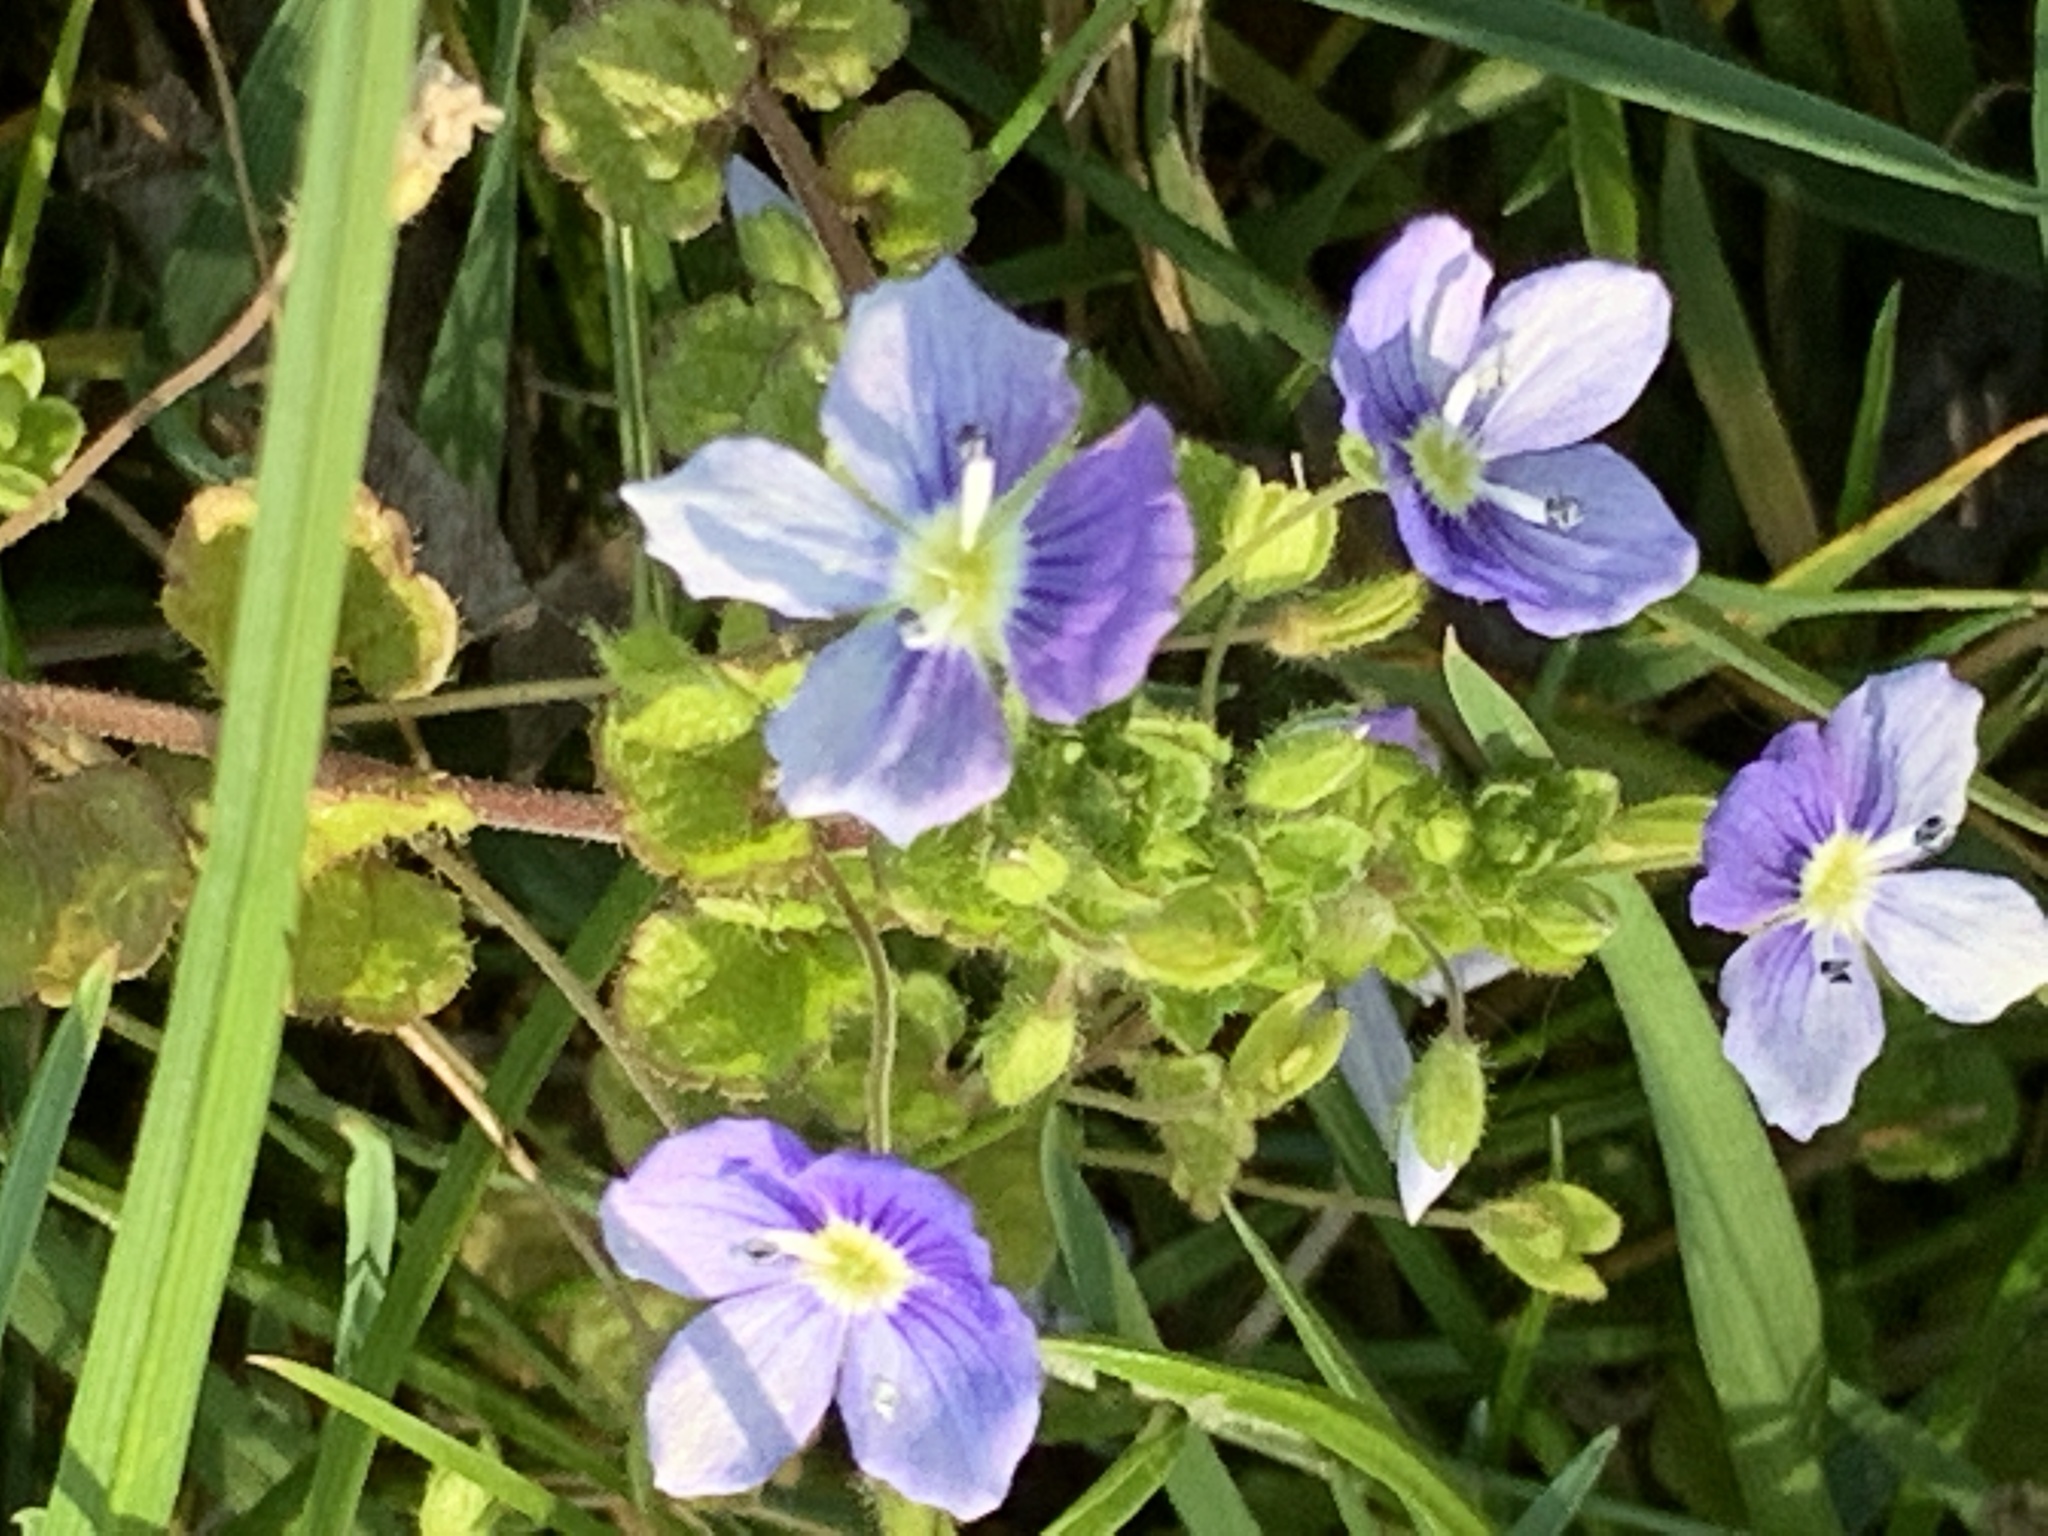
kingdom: Plantae
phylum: Tracheophyta
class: Magnoliopsida
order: Lamiales
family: Plantaginaceae
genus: Veronica
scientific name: Veronica filiformis
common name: Slender speedwell
